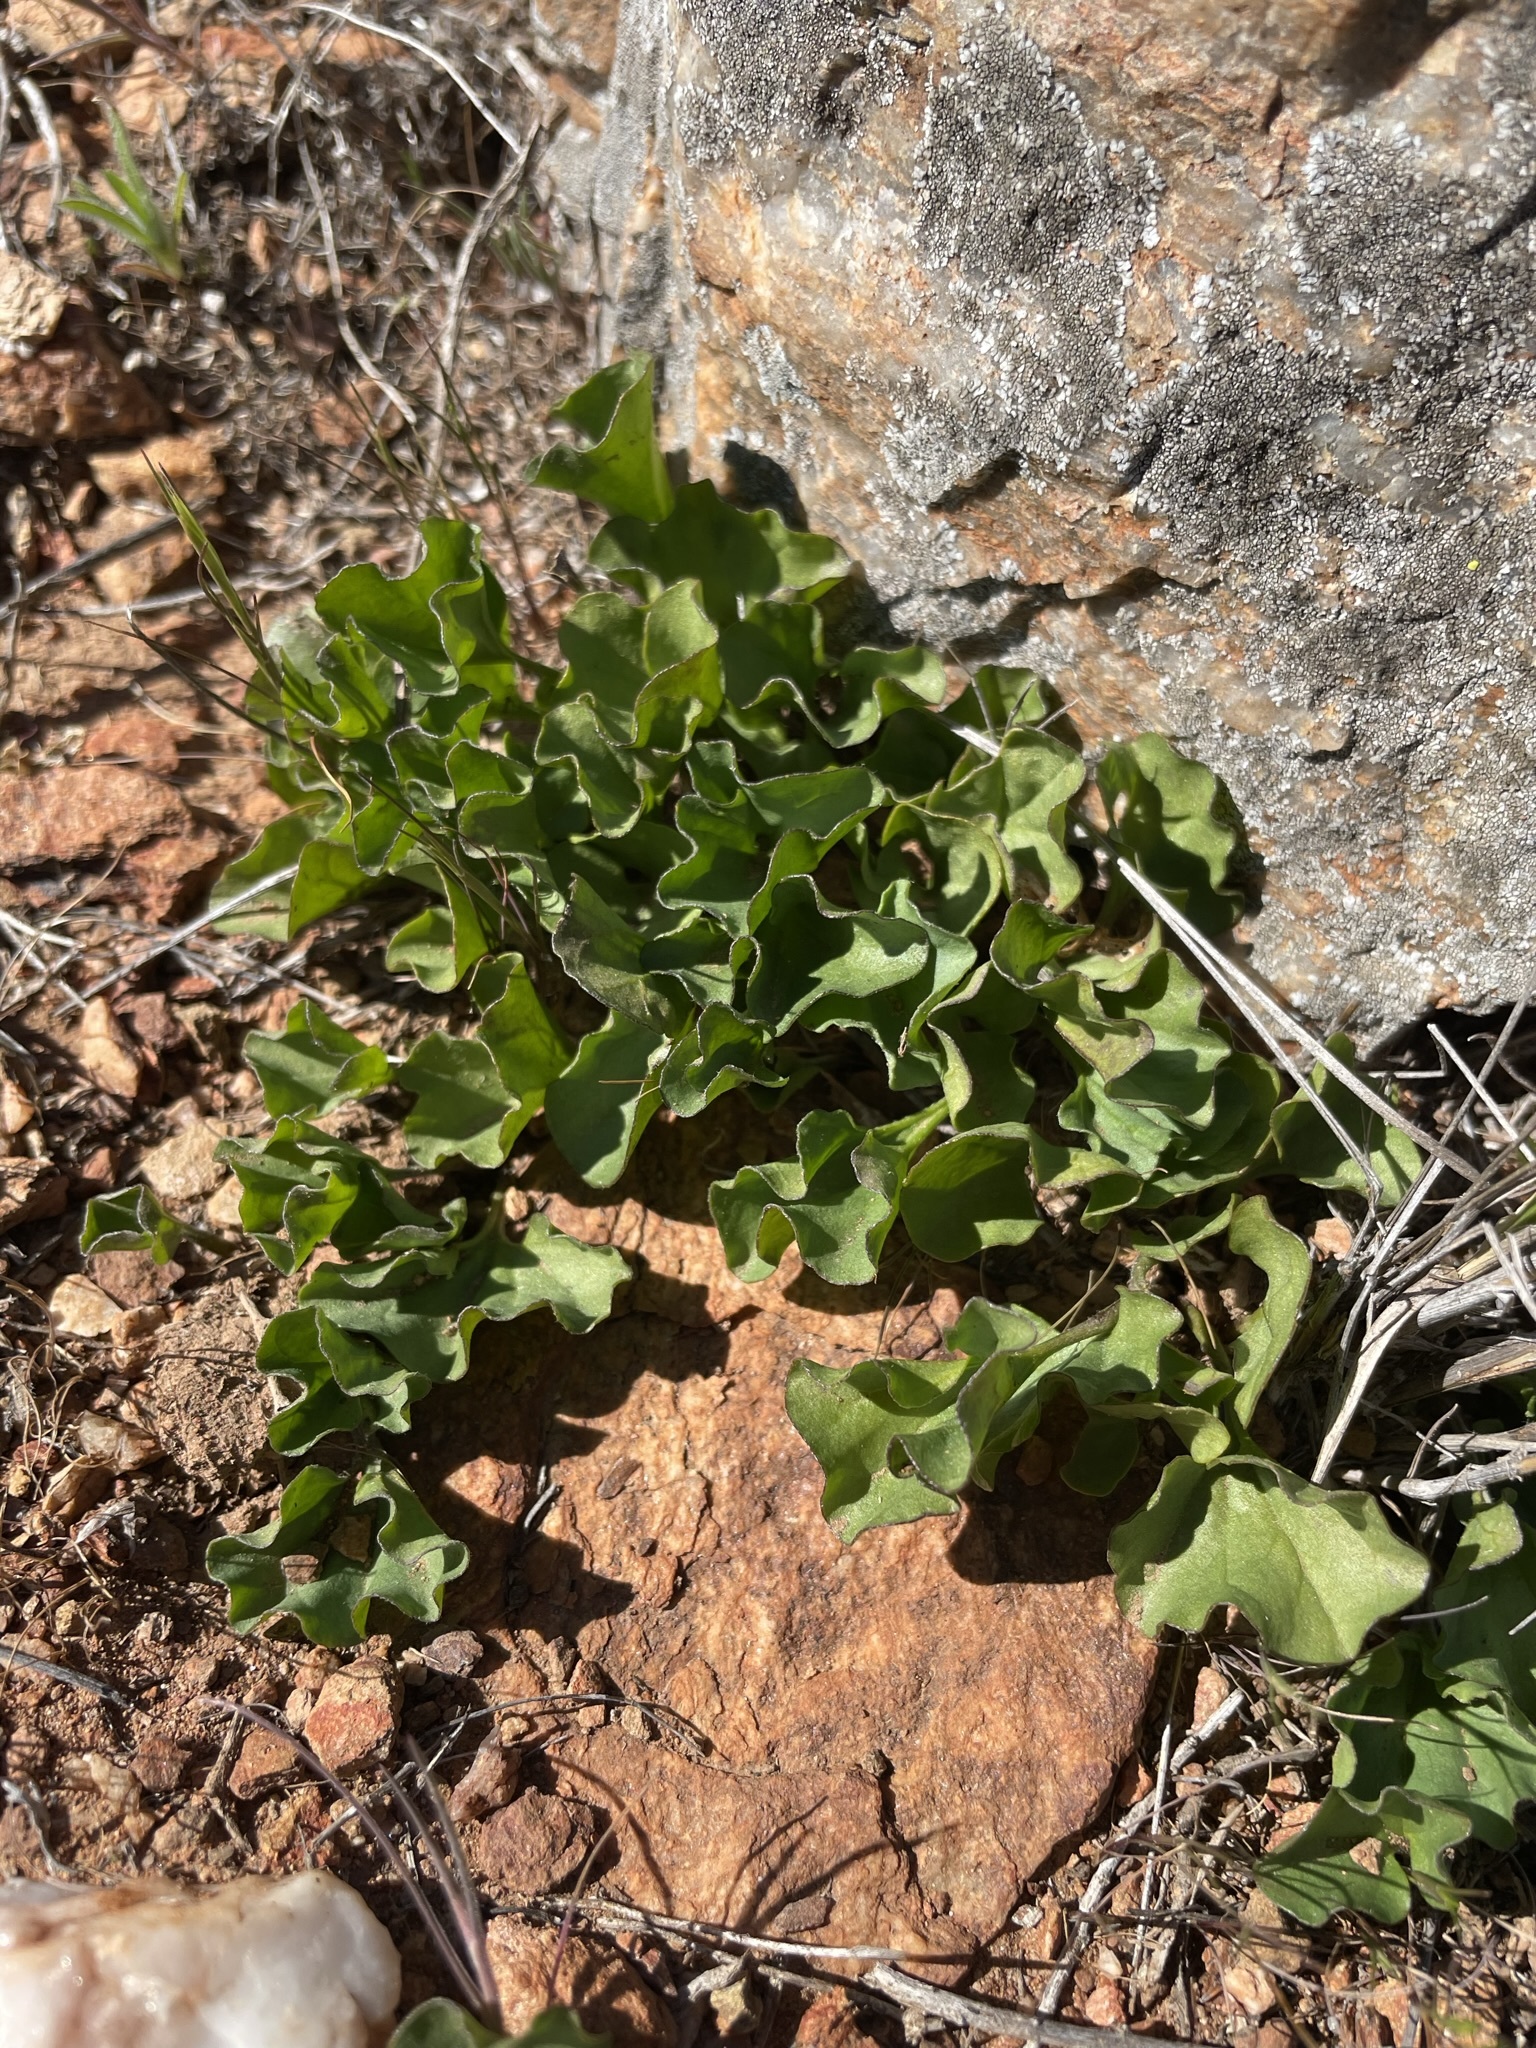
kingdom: Plantae
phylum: Tracheophyta
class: Magnoliopsida
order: Solanales
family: Convolvulaceae
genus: Dichondra
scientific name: Dichondra occidentalis
